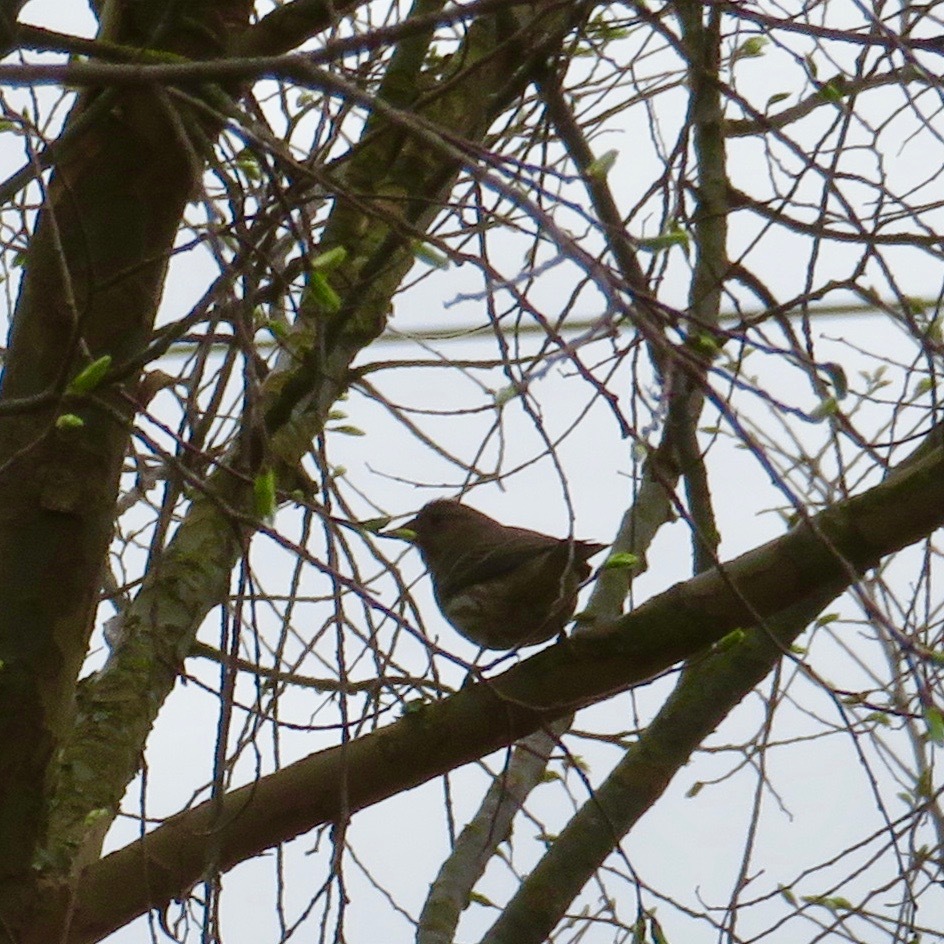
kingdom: Animalia
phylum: Chordata
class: Aves
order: Passeriformes
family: Fringillidae
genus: Haemorhous
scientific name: Haemorhous mexicanus
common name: House finch
